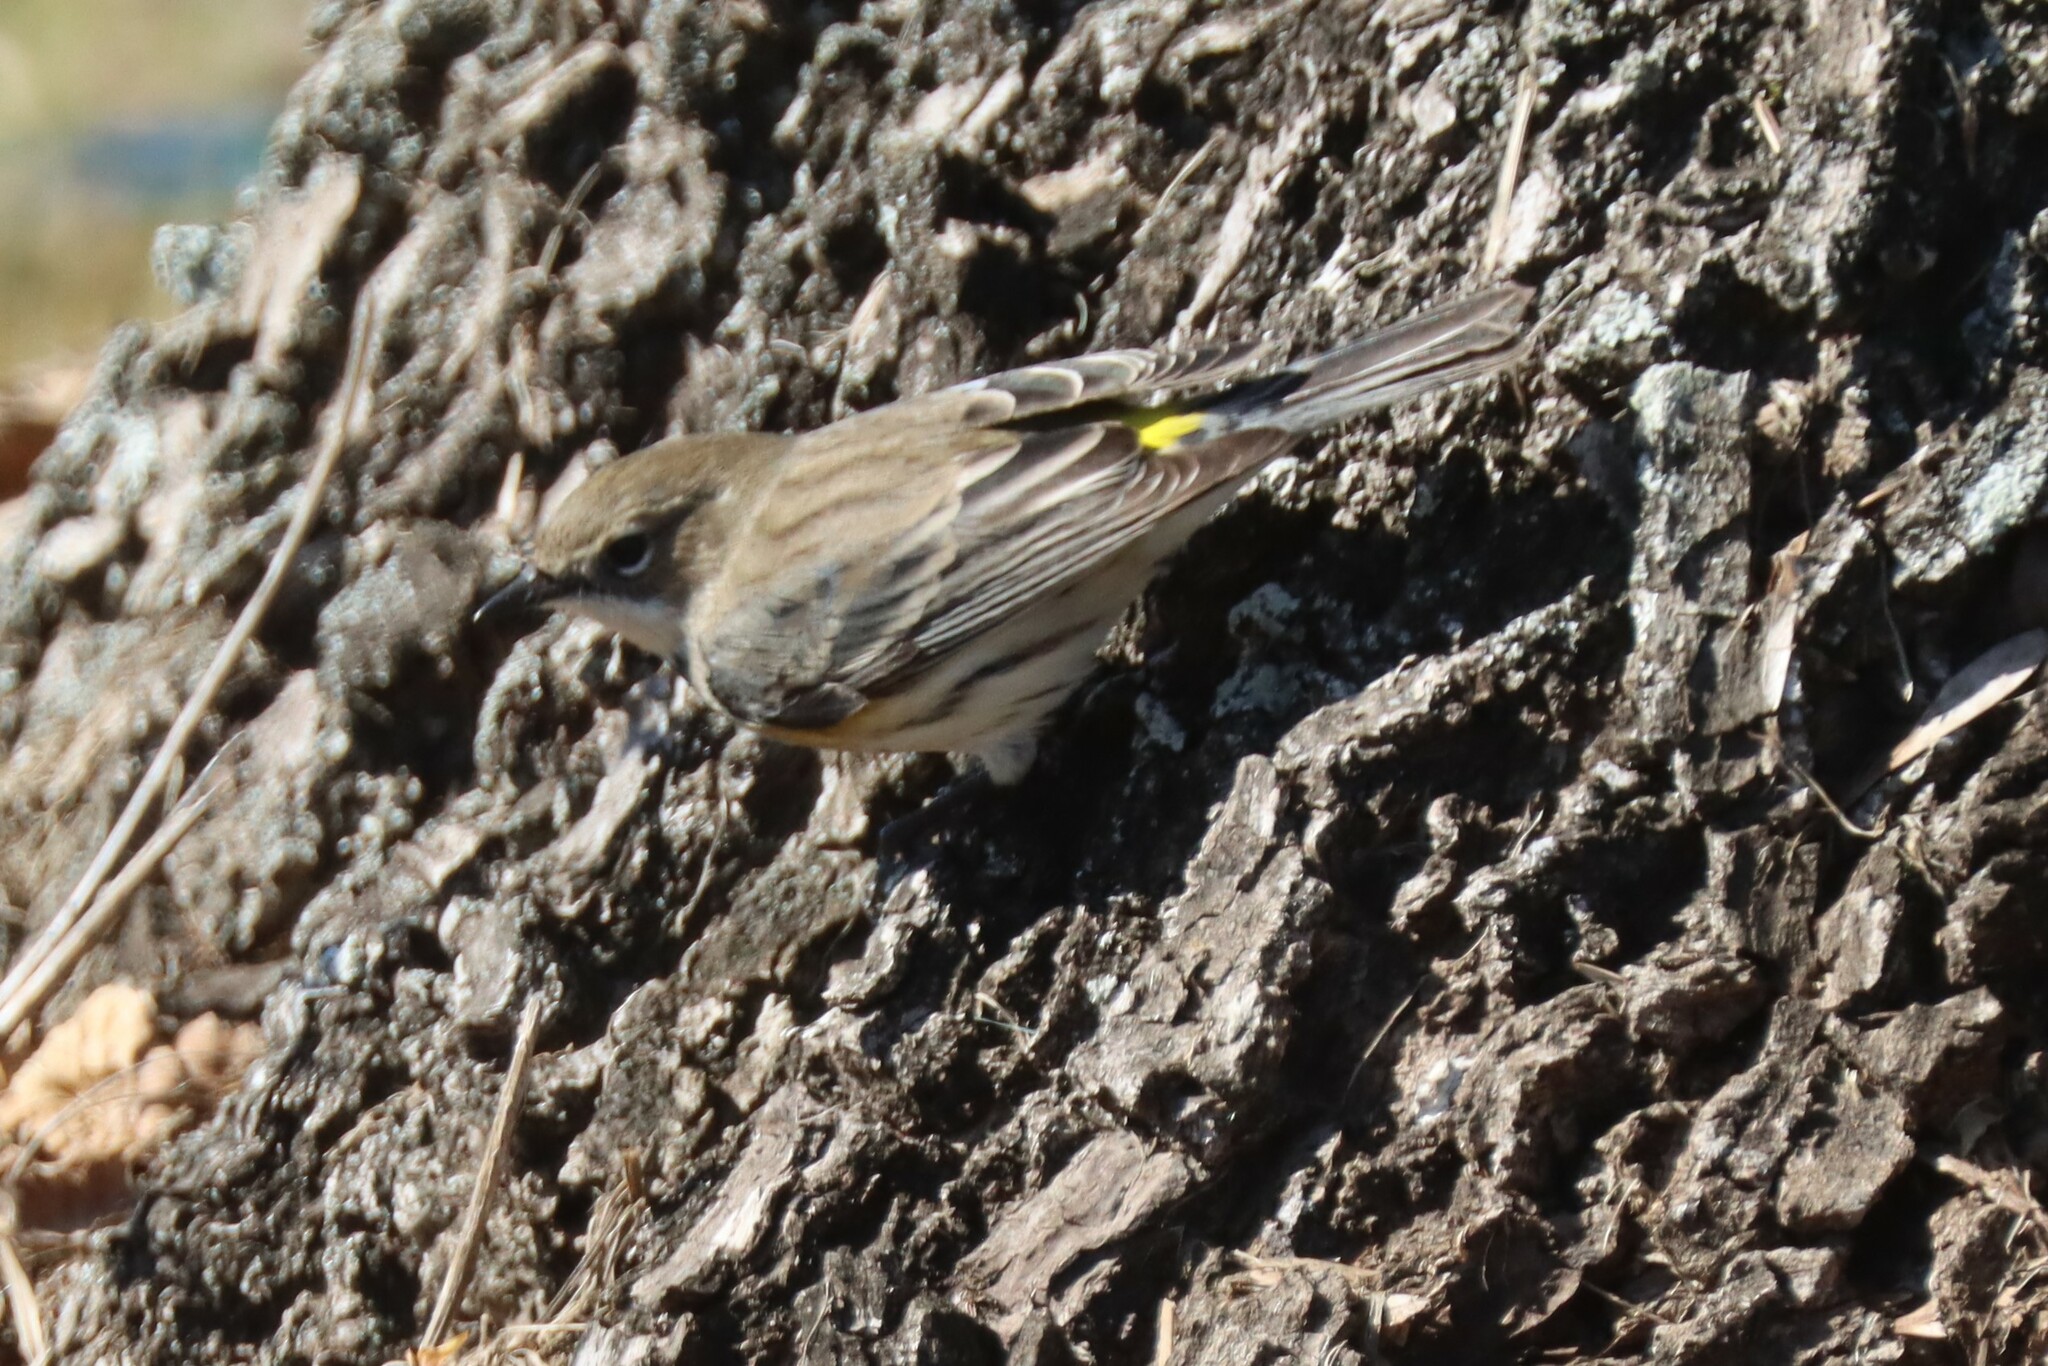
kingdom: Animalia
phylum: Chordata
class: Aves
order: Passeriformes
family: Parulidae
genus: Setophaga
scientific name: Setophaga coronata
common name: Myrtle warbler
